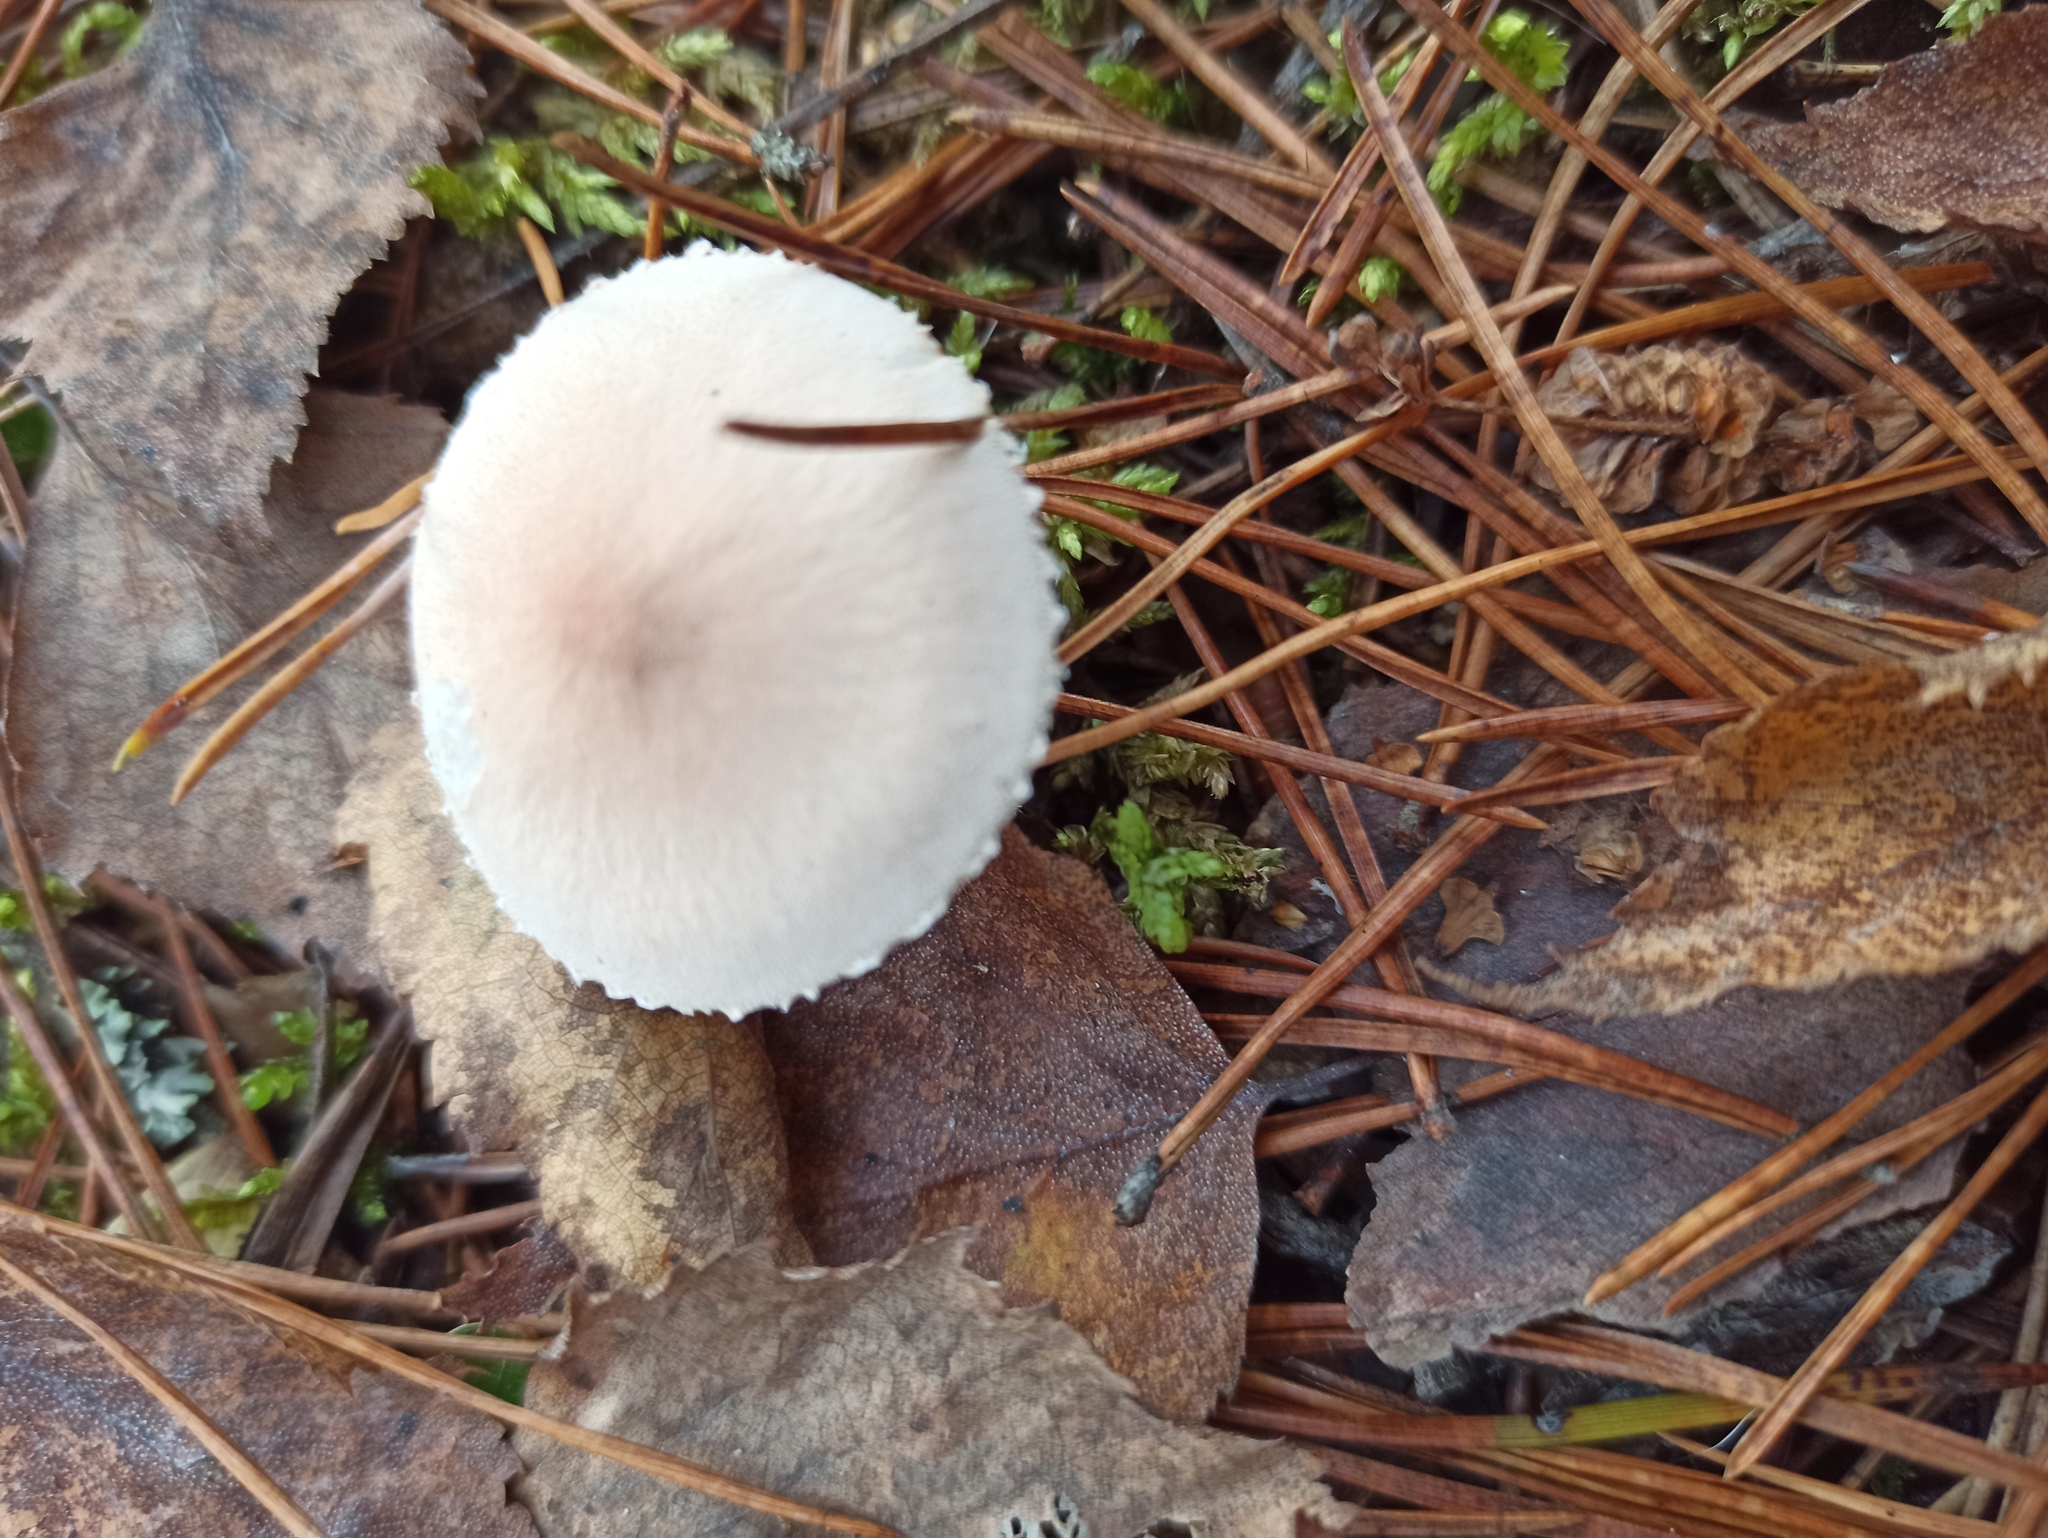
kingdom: Fungi
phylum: Basidiomycota
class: Agaricomycetes
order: Agaricales
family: Tricholomataceae
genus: Cystoderma
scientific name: Cystoderma carcharias
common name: Pearly powdercap
